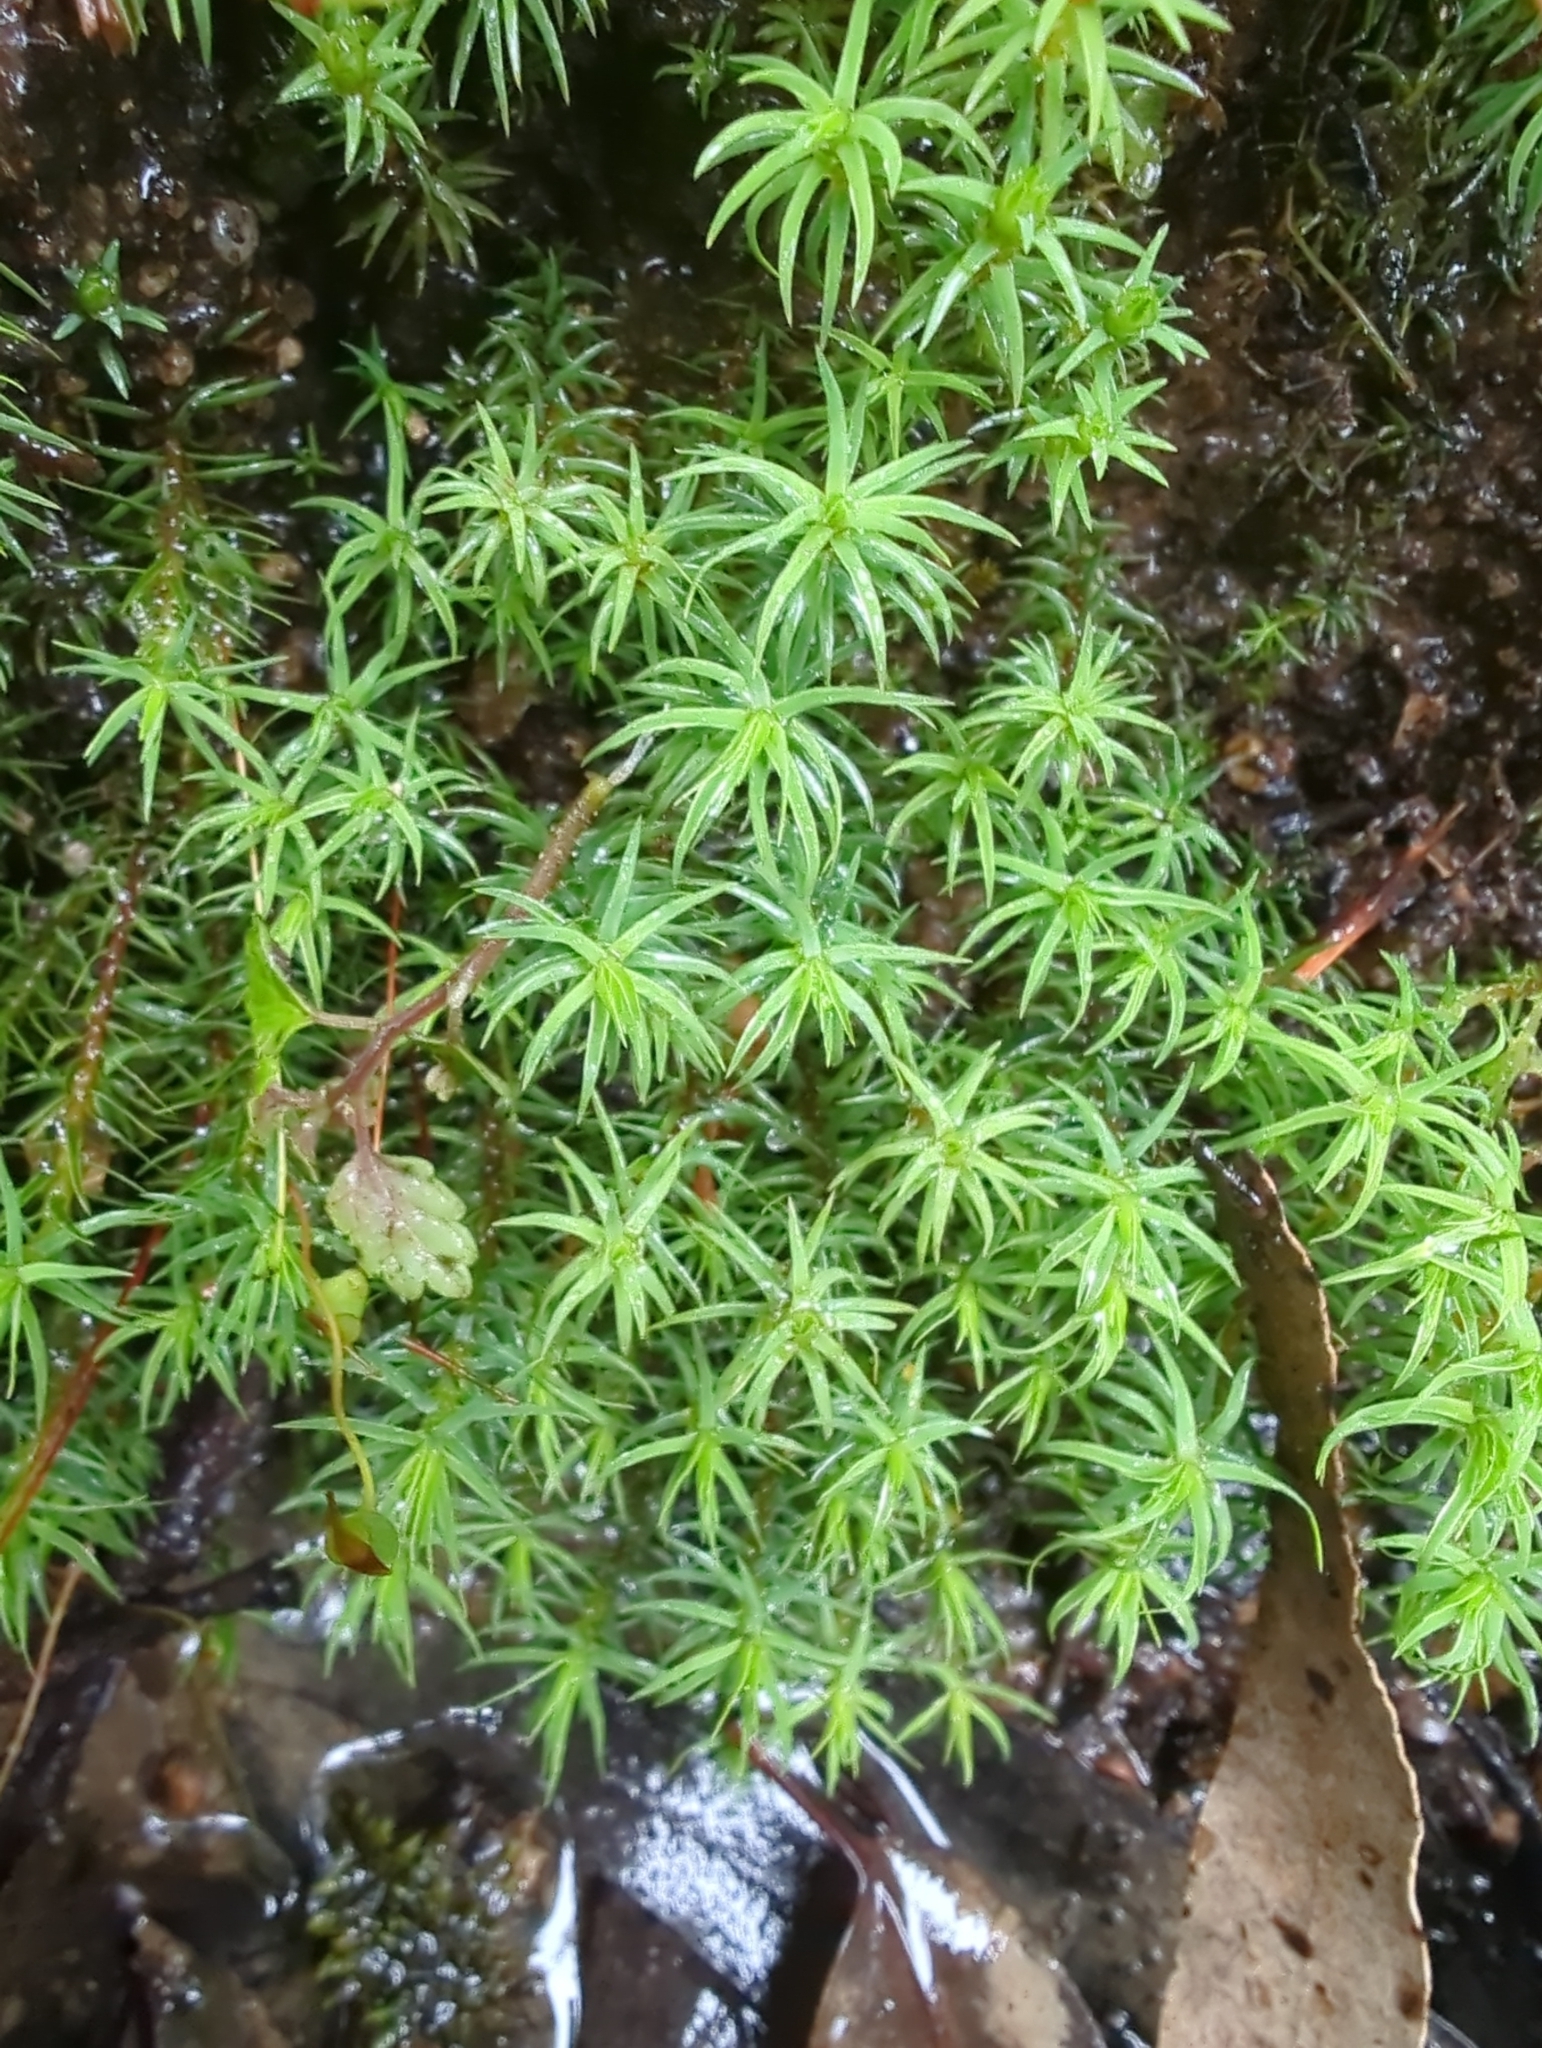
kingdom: Plantae
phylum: Bryophyta
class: Polytrichopsida
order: Polytrichales
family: Polytrichaceae
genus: Polytrichadelphus
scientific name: Polytrichadelphus magellanicus
